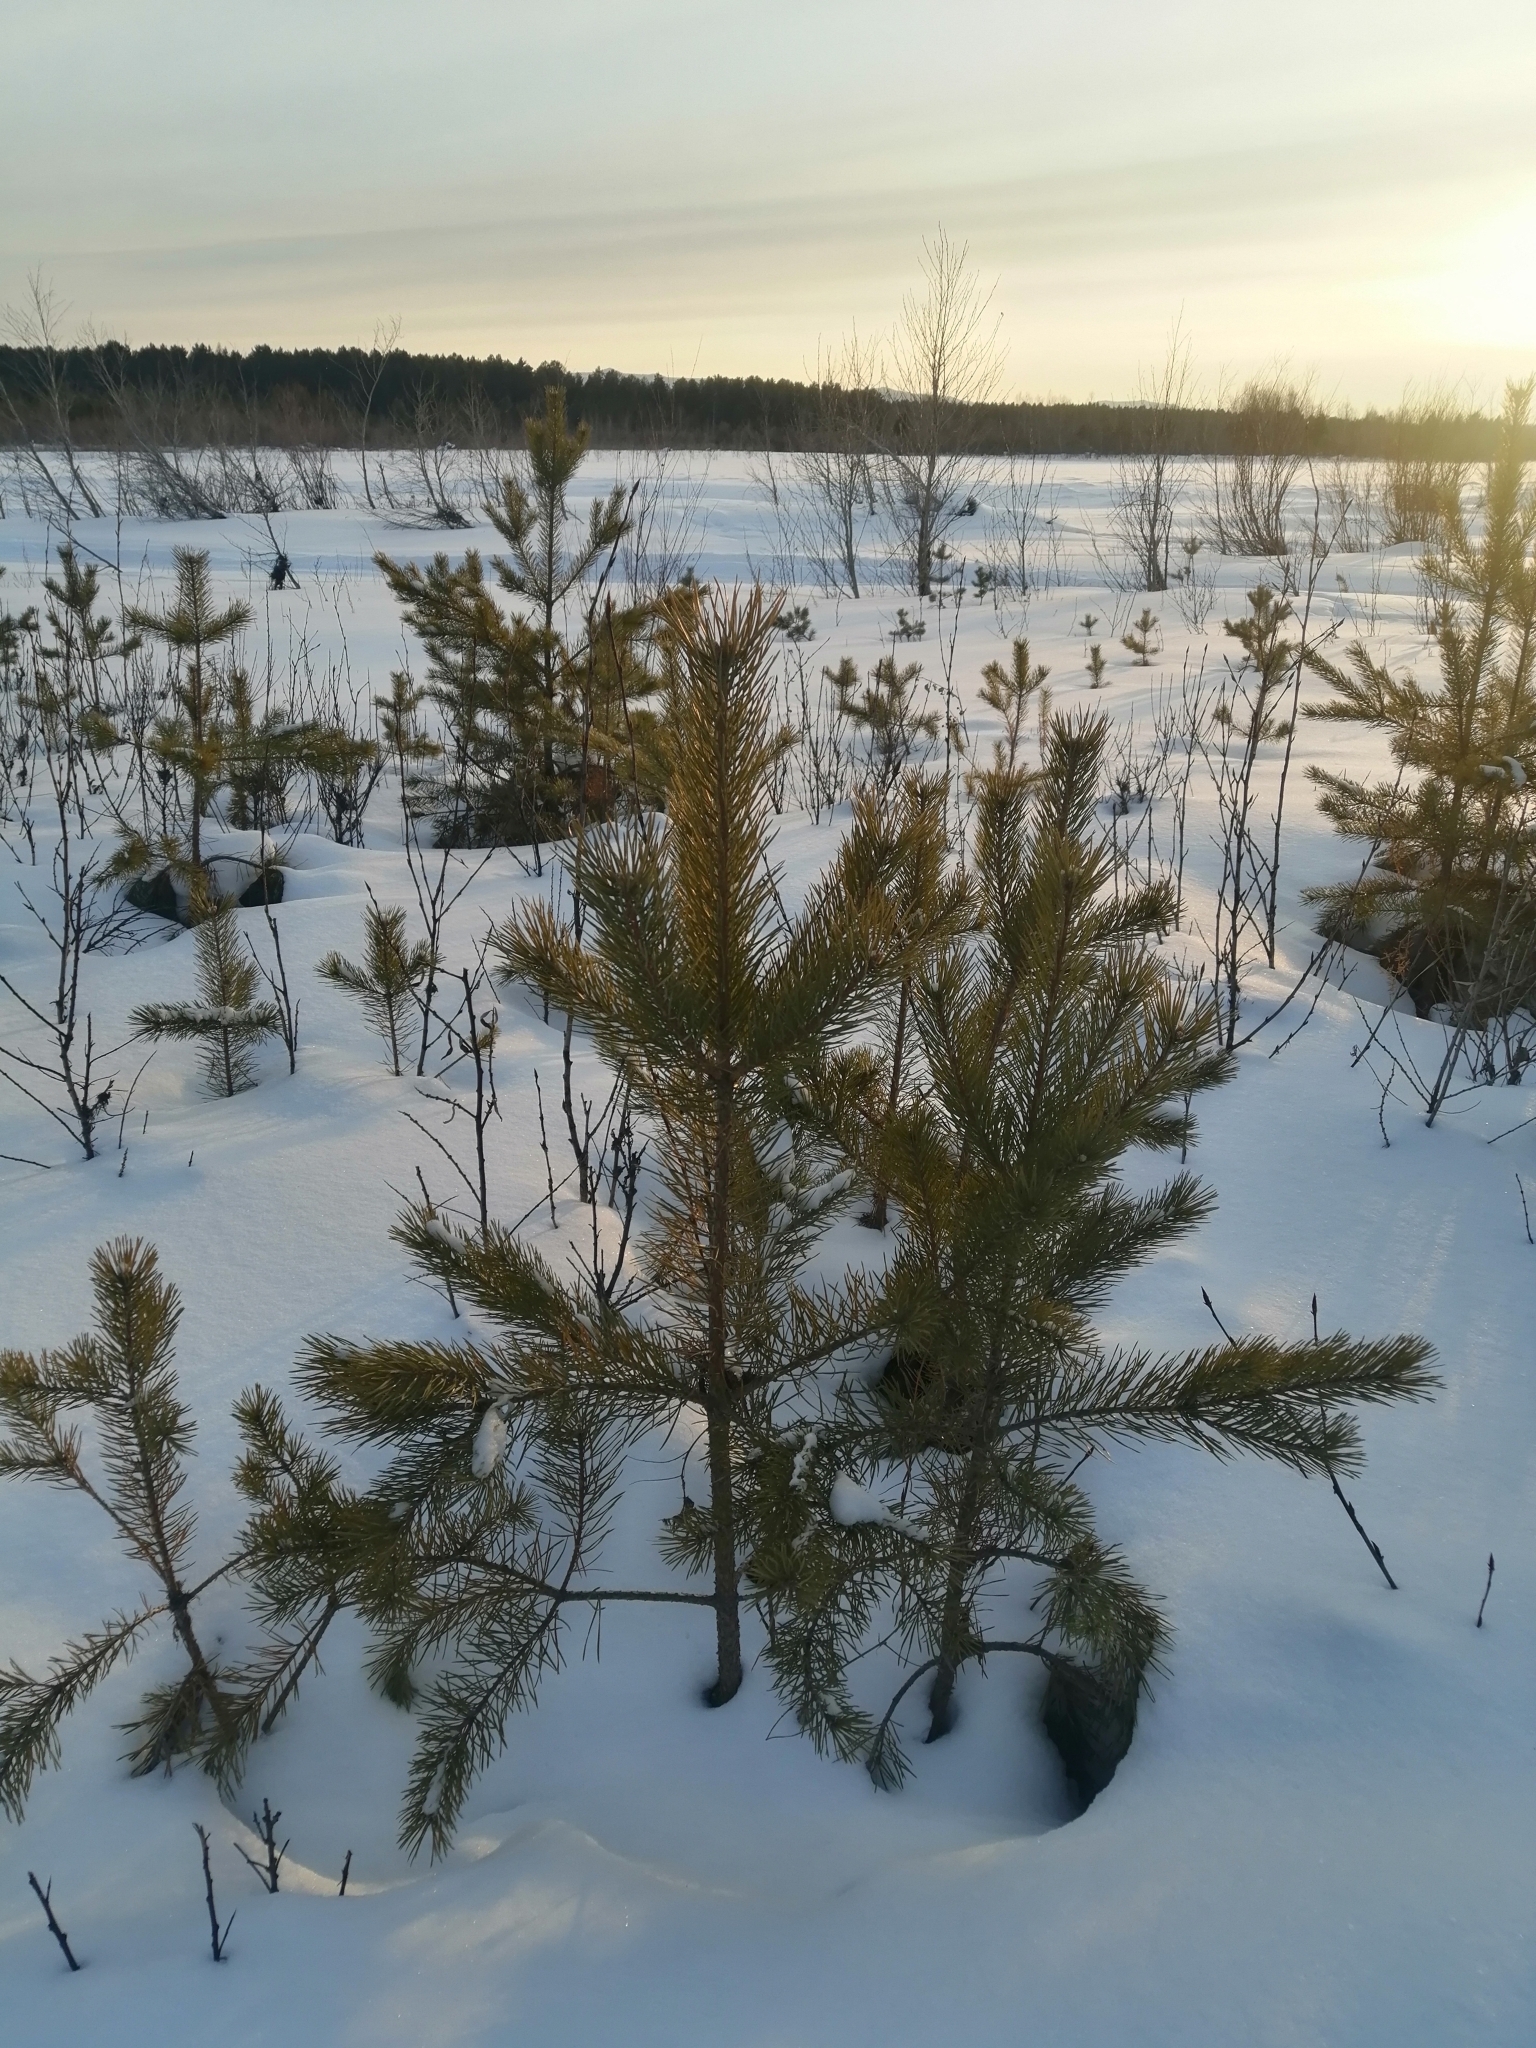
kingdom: Plantae
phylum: Tracheophyta
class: Pinopsida
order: Pinales
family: Pinaceae
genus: Pinus
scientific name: Pinus sylvestris
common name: Scots pine
